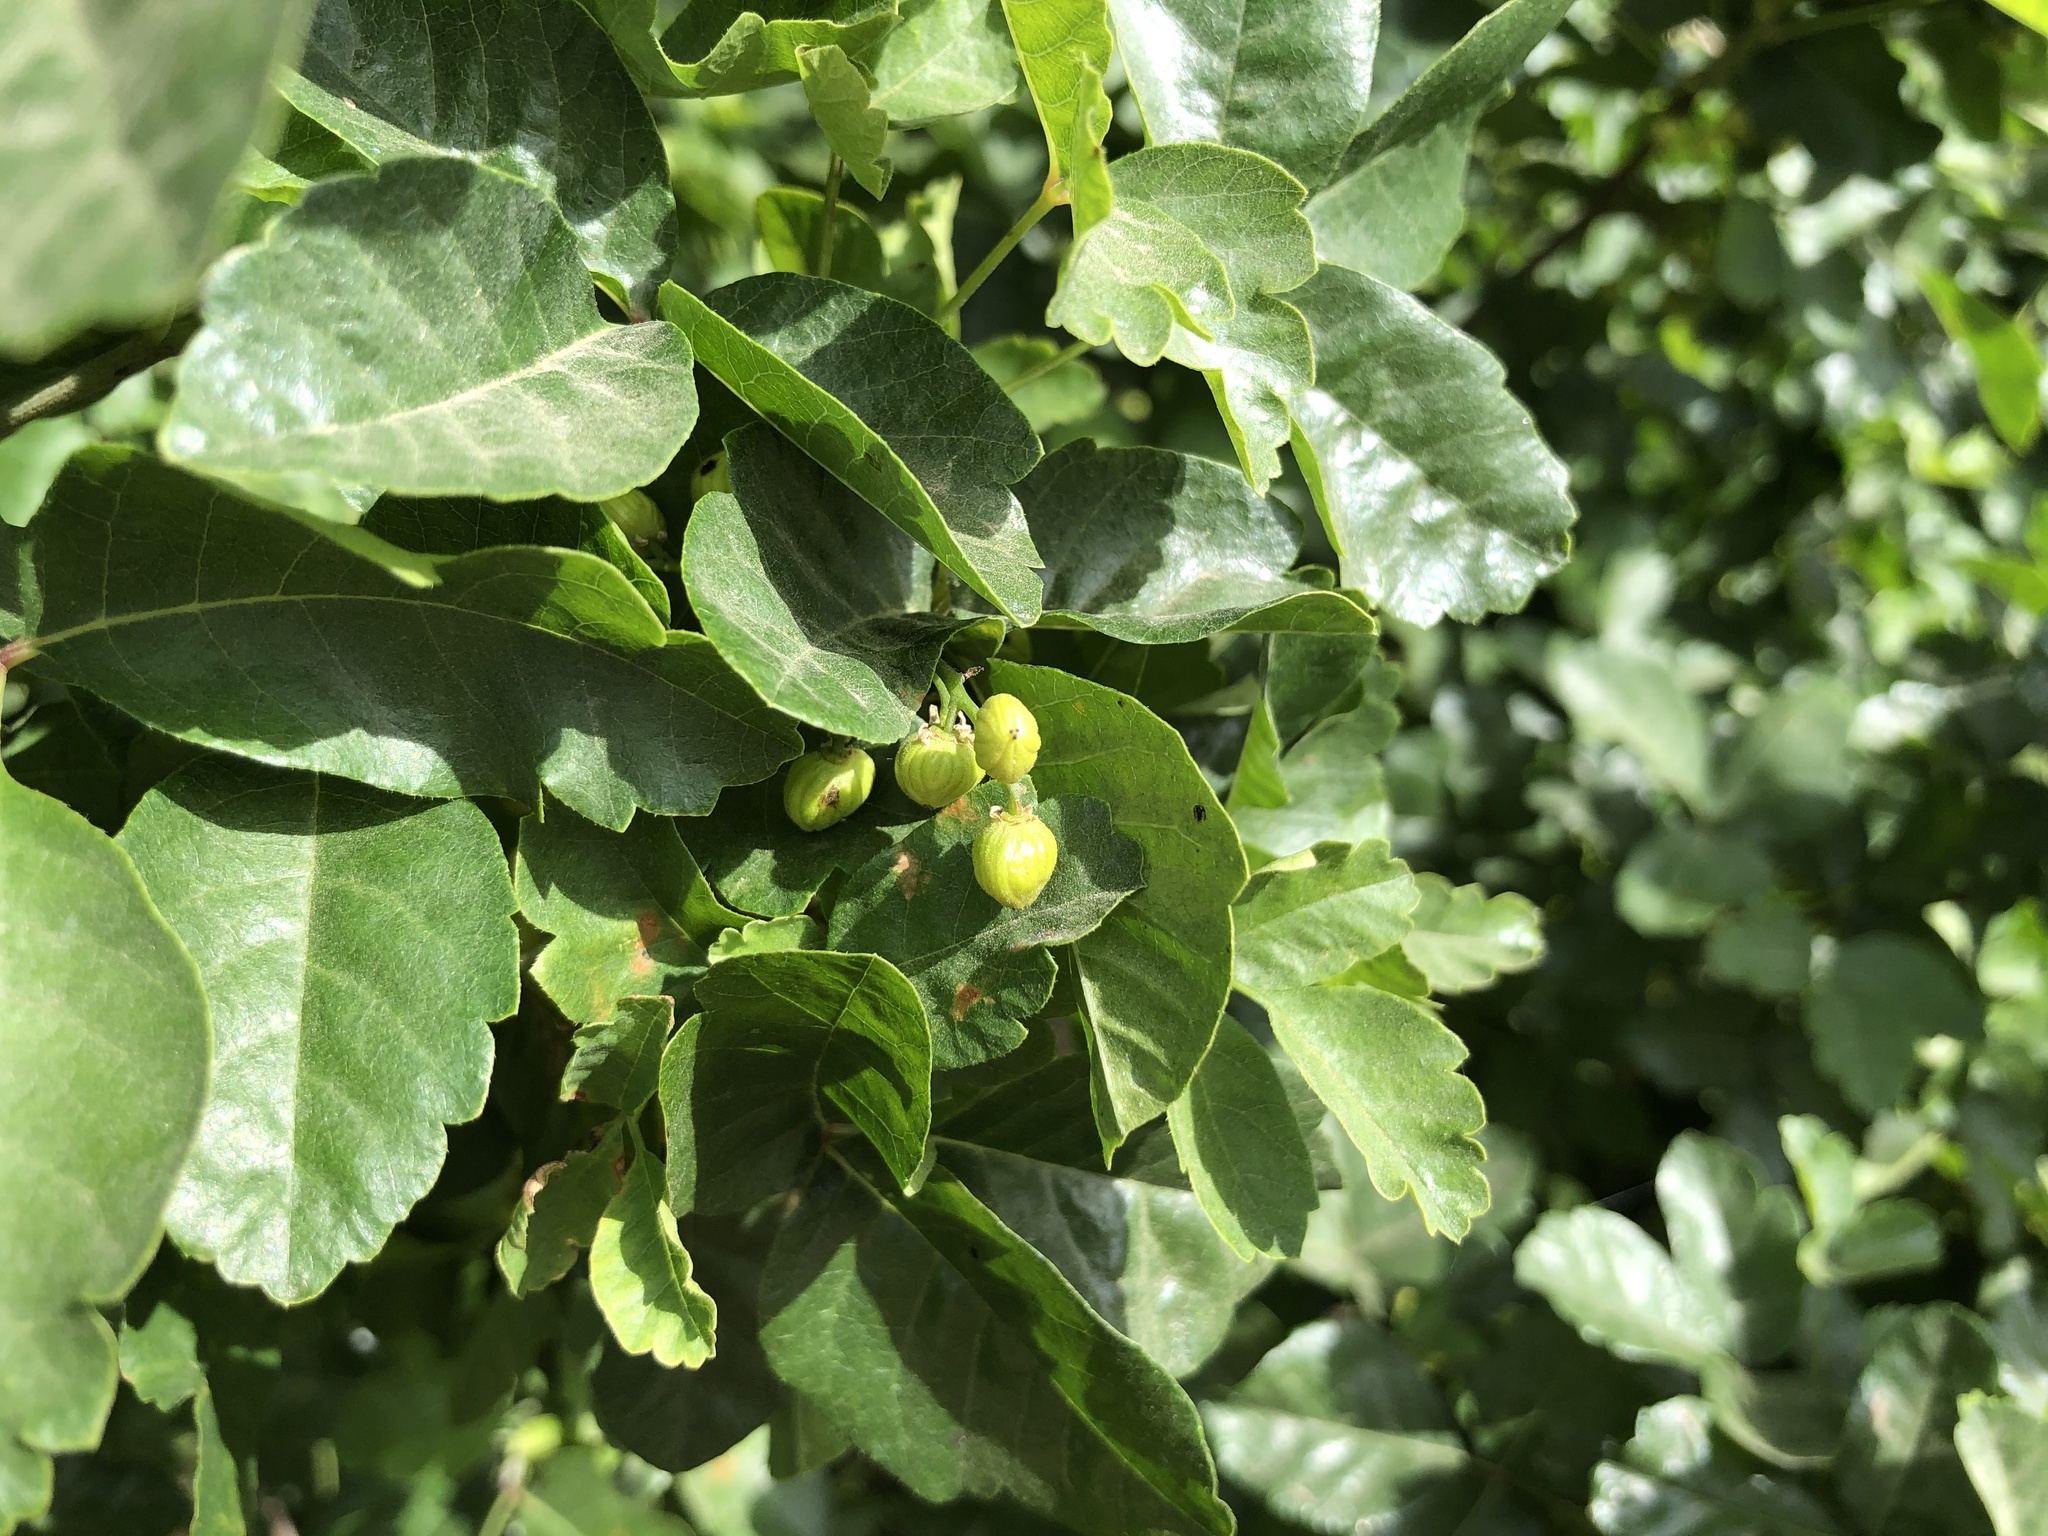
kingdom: Plantae
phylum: Tracheophyta
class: Magnoliopsida
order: Sapindales
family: Anacardiaceae
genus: Toxicodendron
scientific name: Toxicodendron diversilobum
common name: Pacific poison-oak
